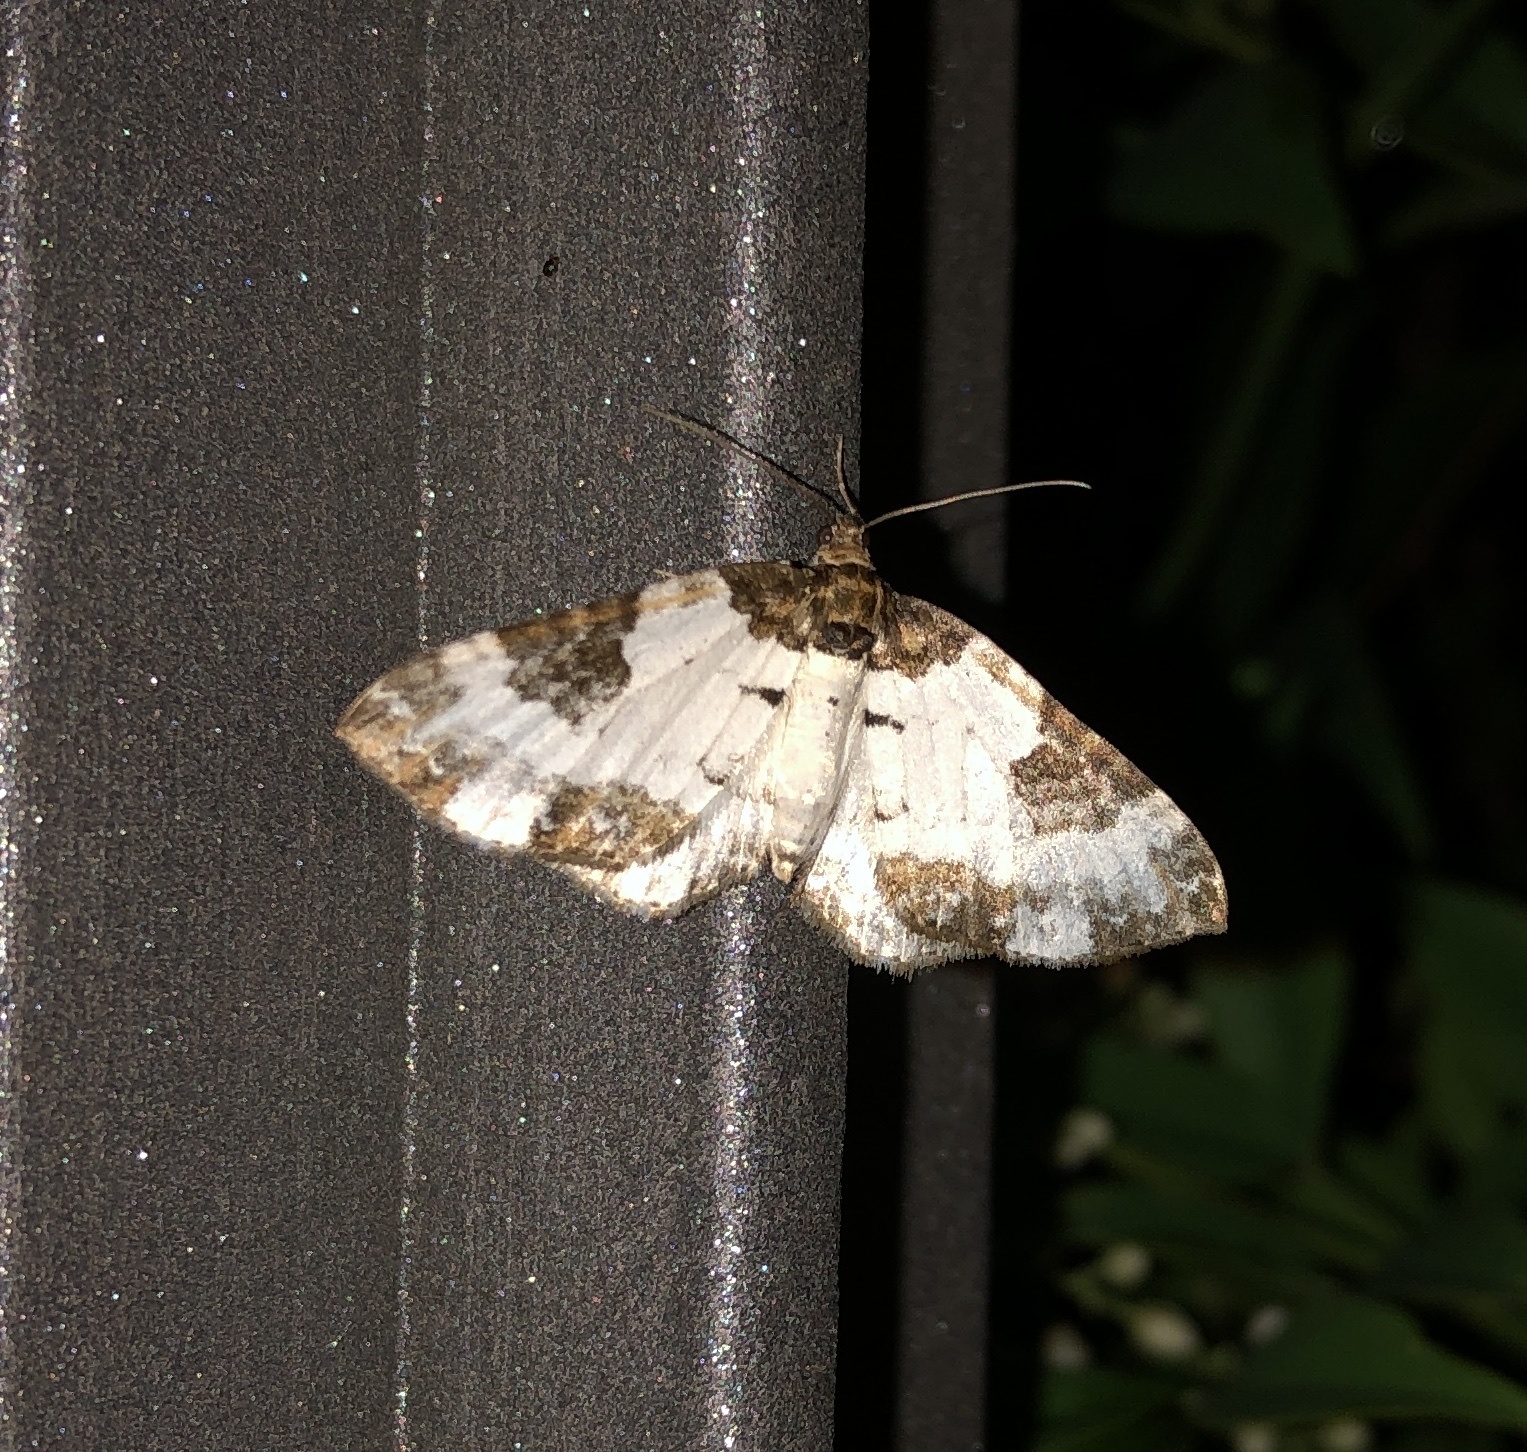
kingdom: Animalia
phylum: Arthropoda
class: Insecta
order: Lepidoptera
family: Geometridae
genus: Melanthia
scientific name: Melanthia procellata
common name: Pretty chalk carpet
